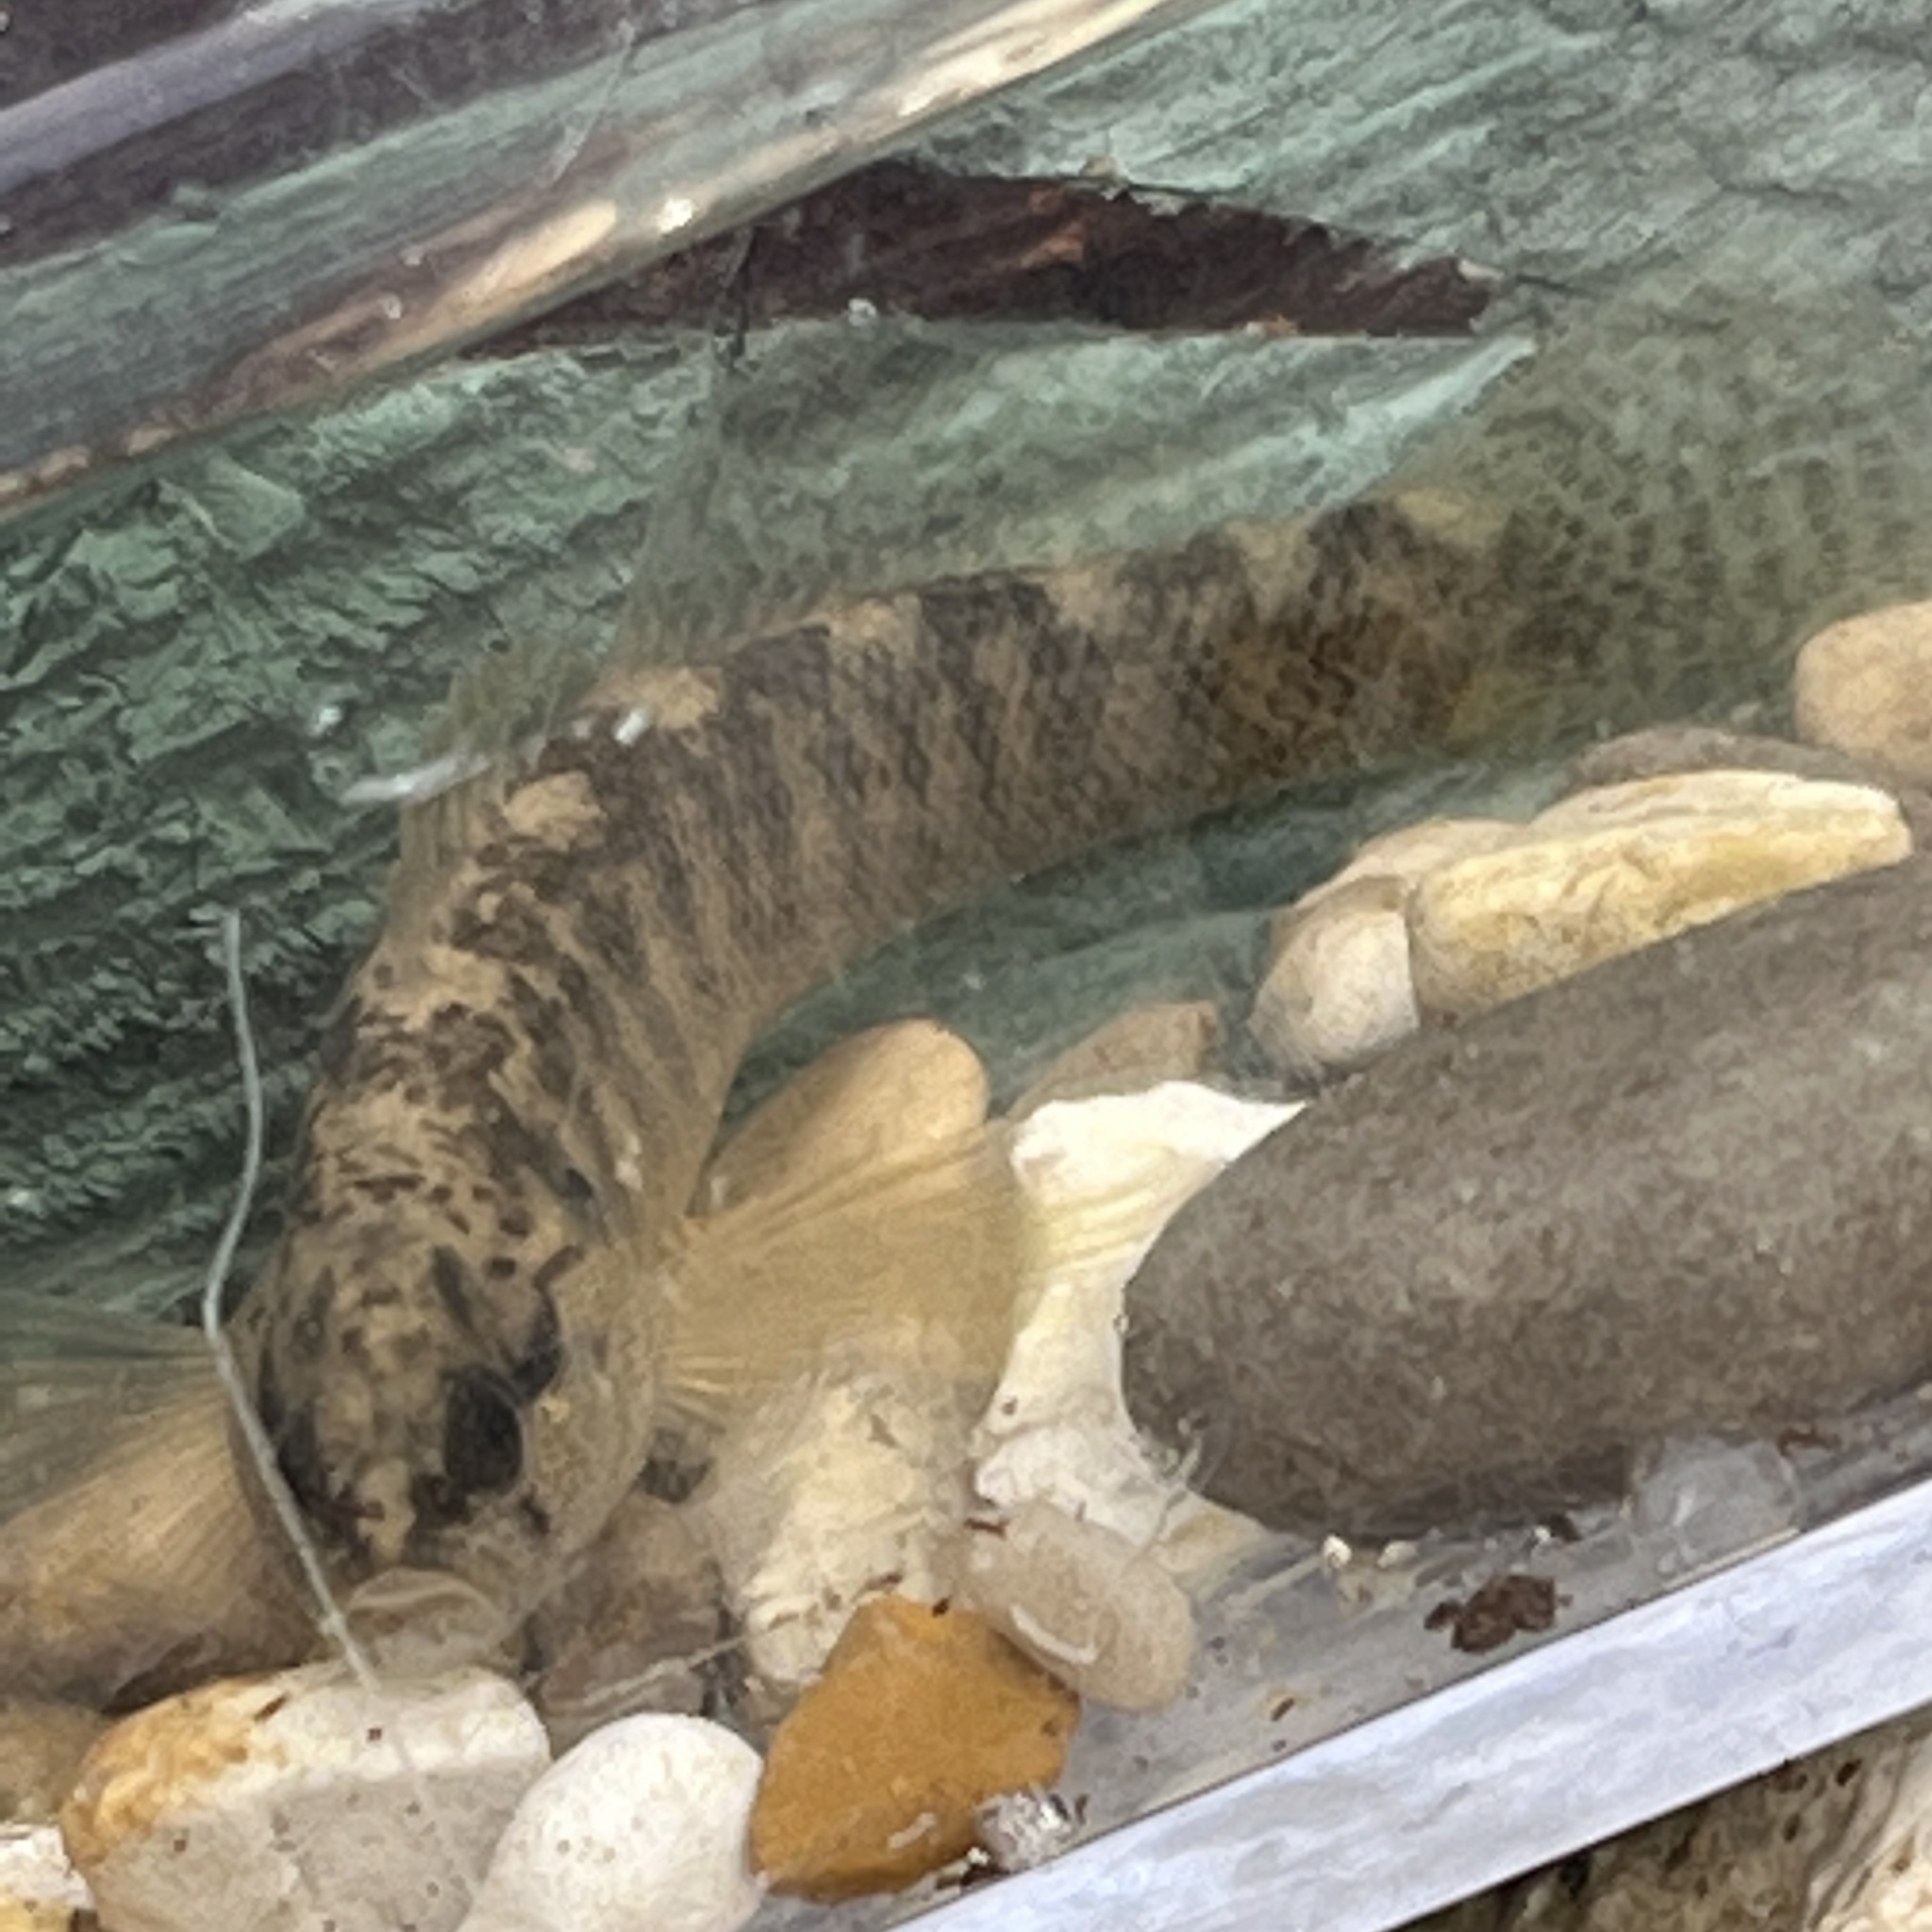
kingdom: Animalia
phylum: Chordata
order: Perciformes
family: Percidae
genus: Etheostoma
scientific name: Etheostoma flabellare
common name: Fantail darter
